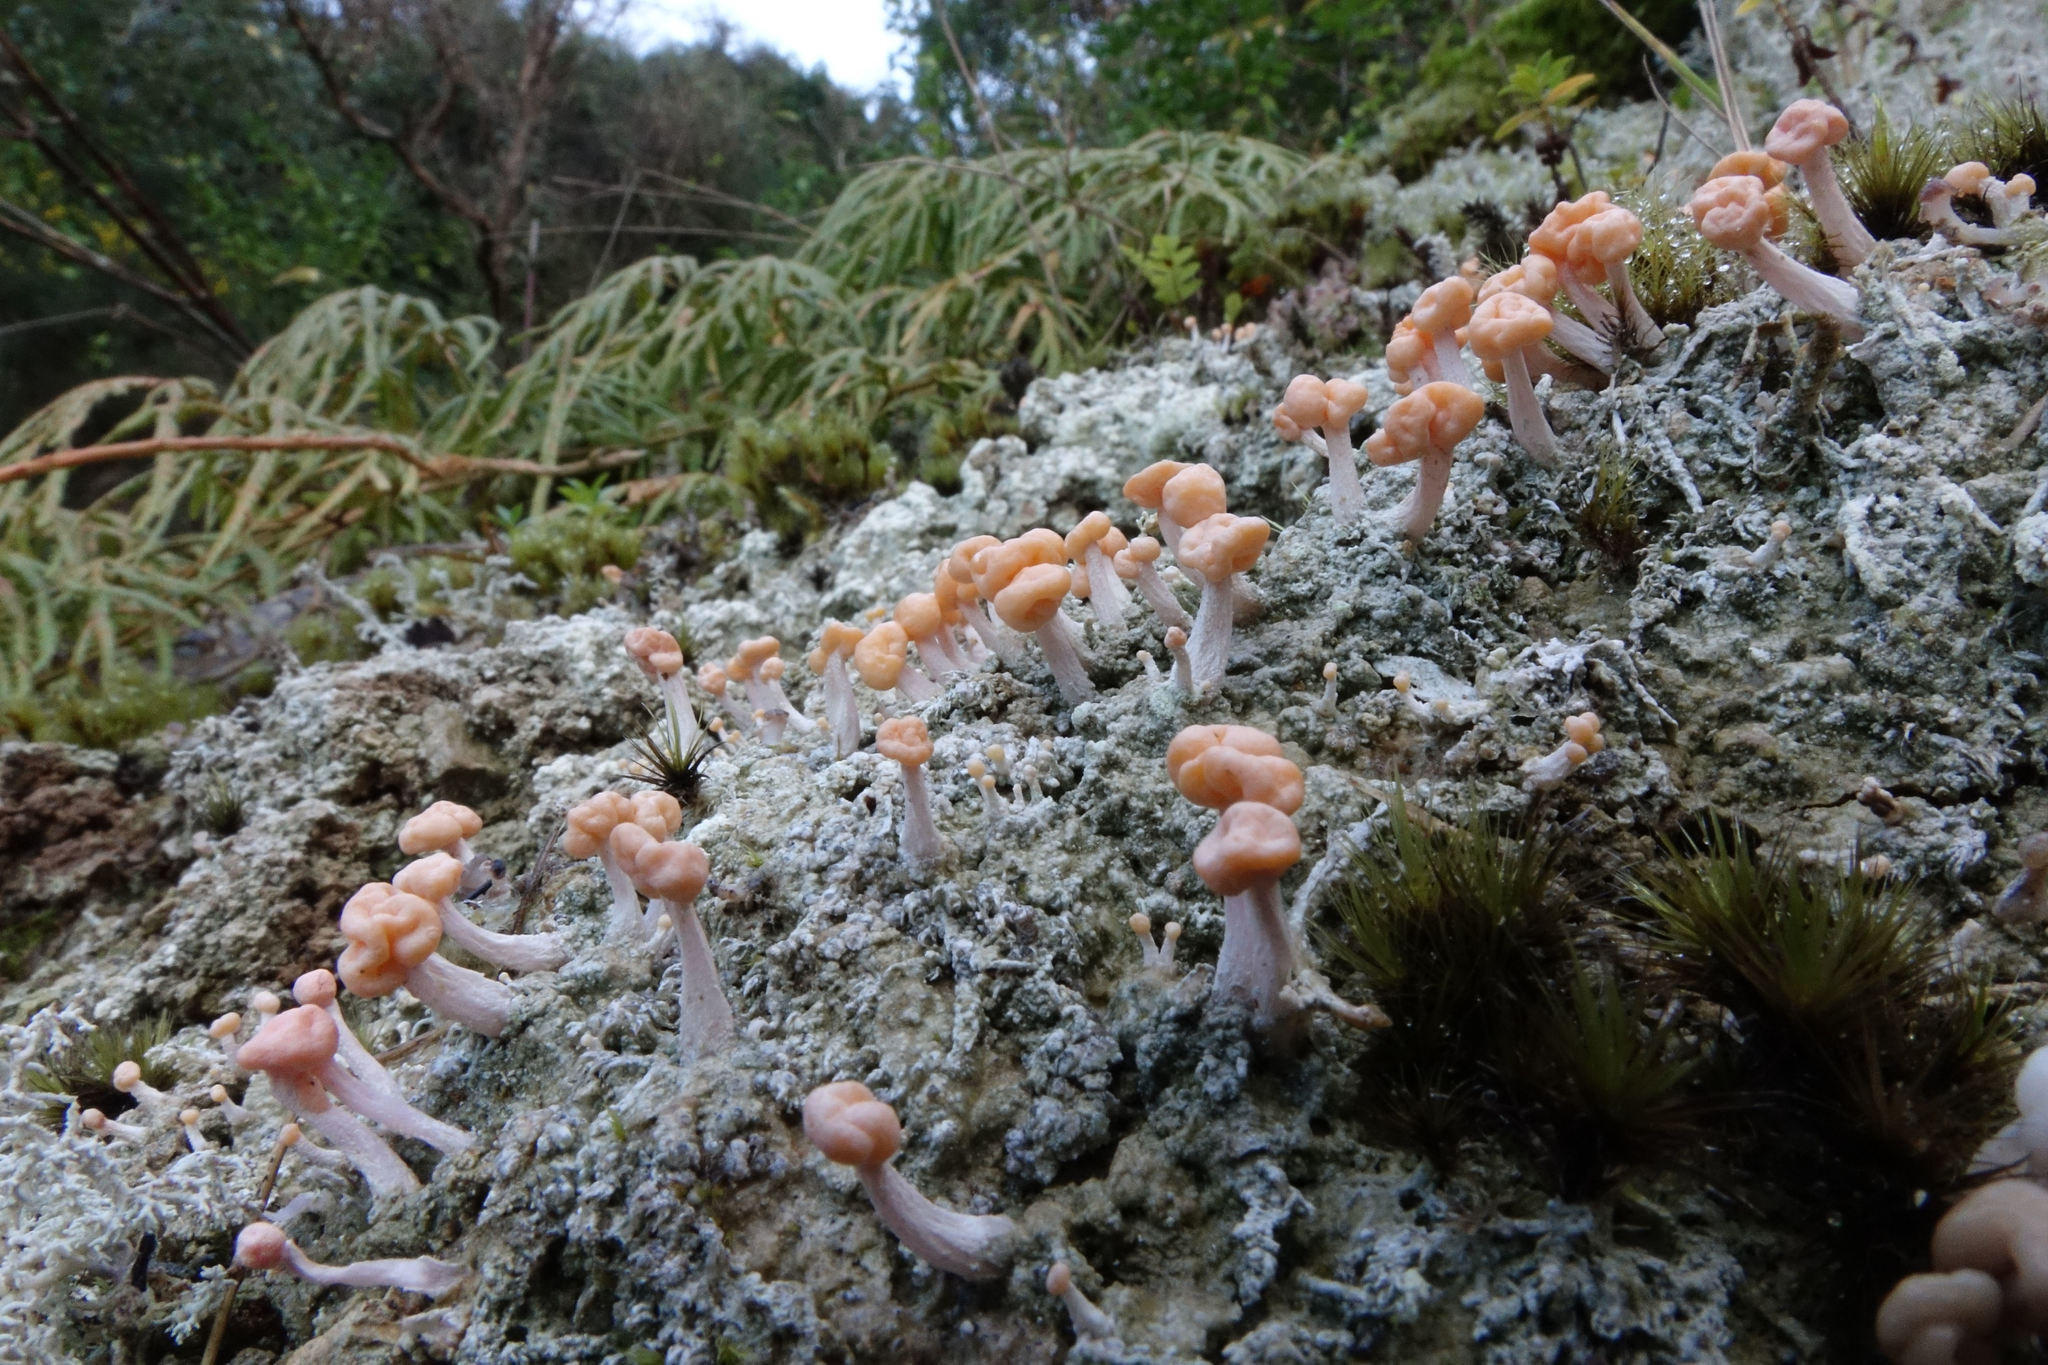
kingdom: Fungi
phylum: Ascomycota
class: Lecanoromycetes
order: Pertusariales
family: Icmadophilaceae
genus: Dibaeis
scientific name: Dibaeis arcuata
